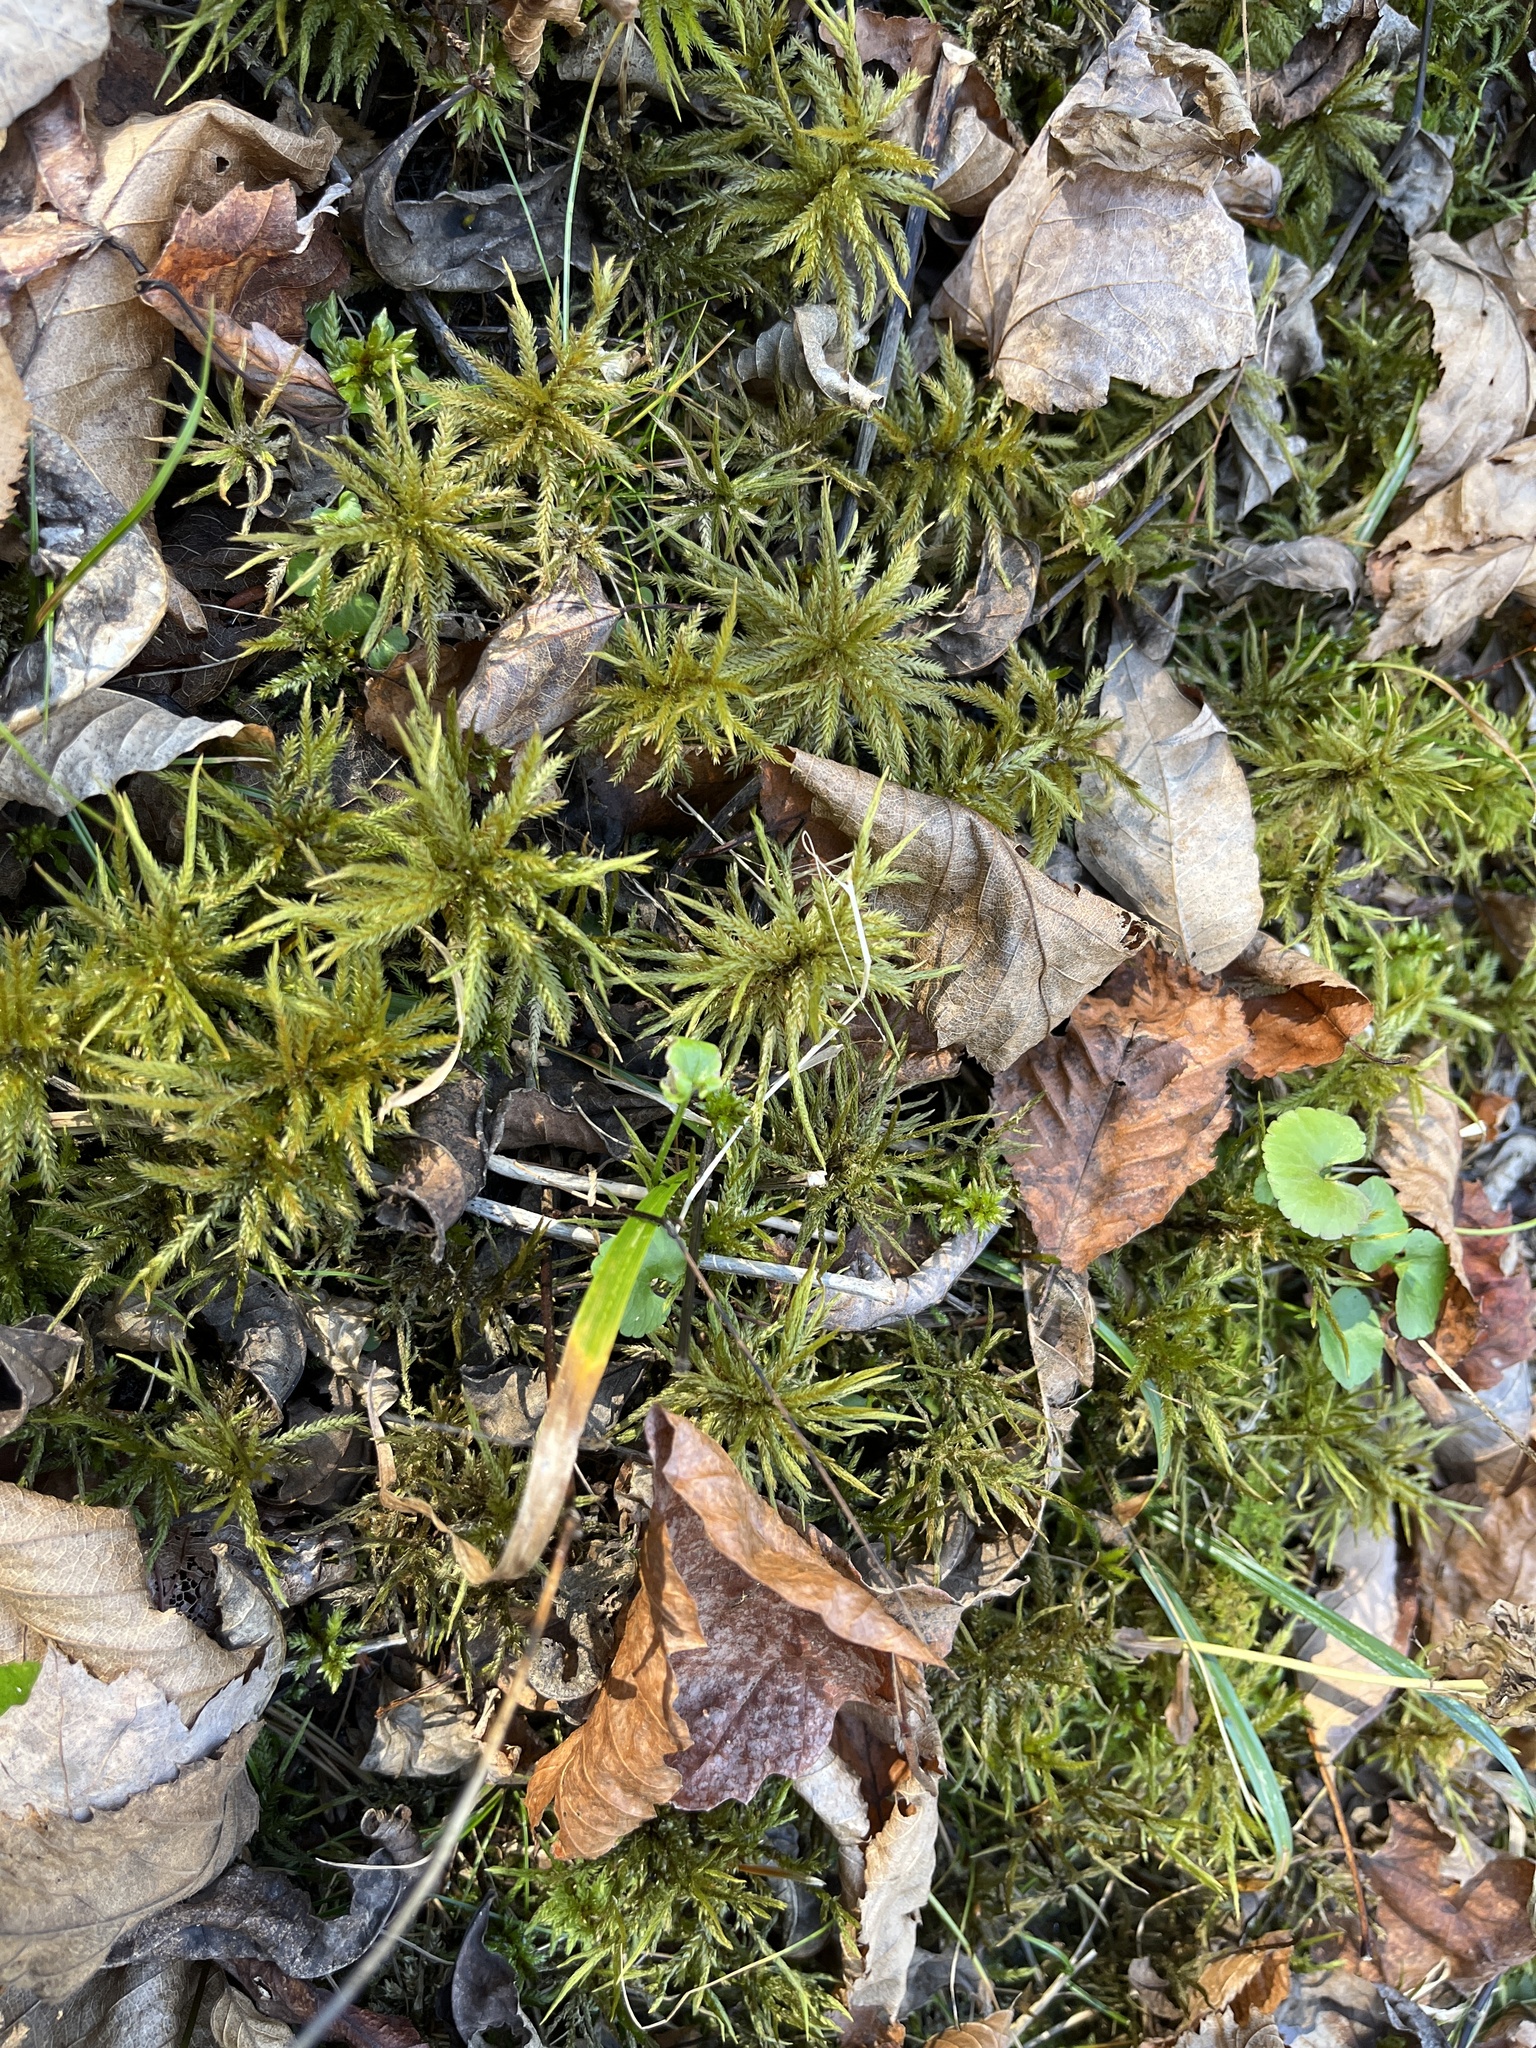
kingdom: Plantae
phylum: Bryophyta
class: Bryopsida
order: Hypnales
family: Climaciaceae
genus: Climacium
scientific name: Climacium
